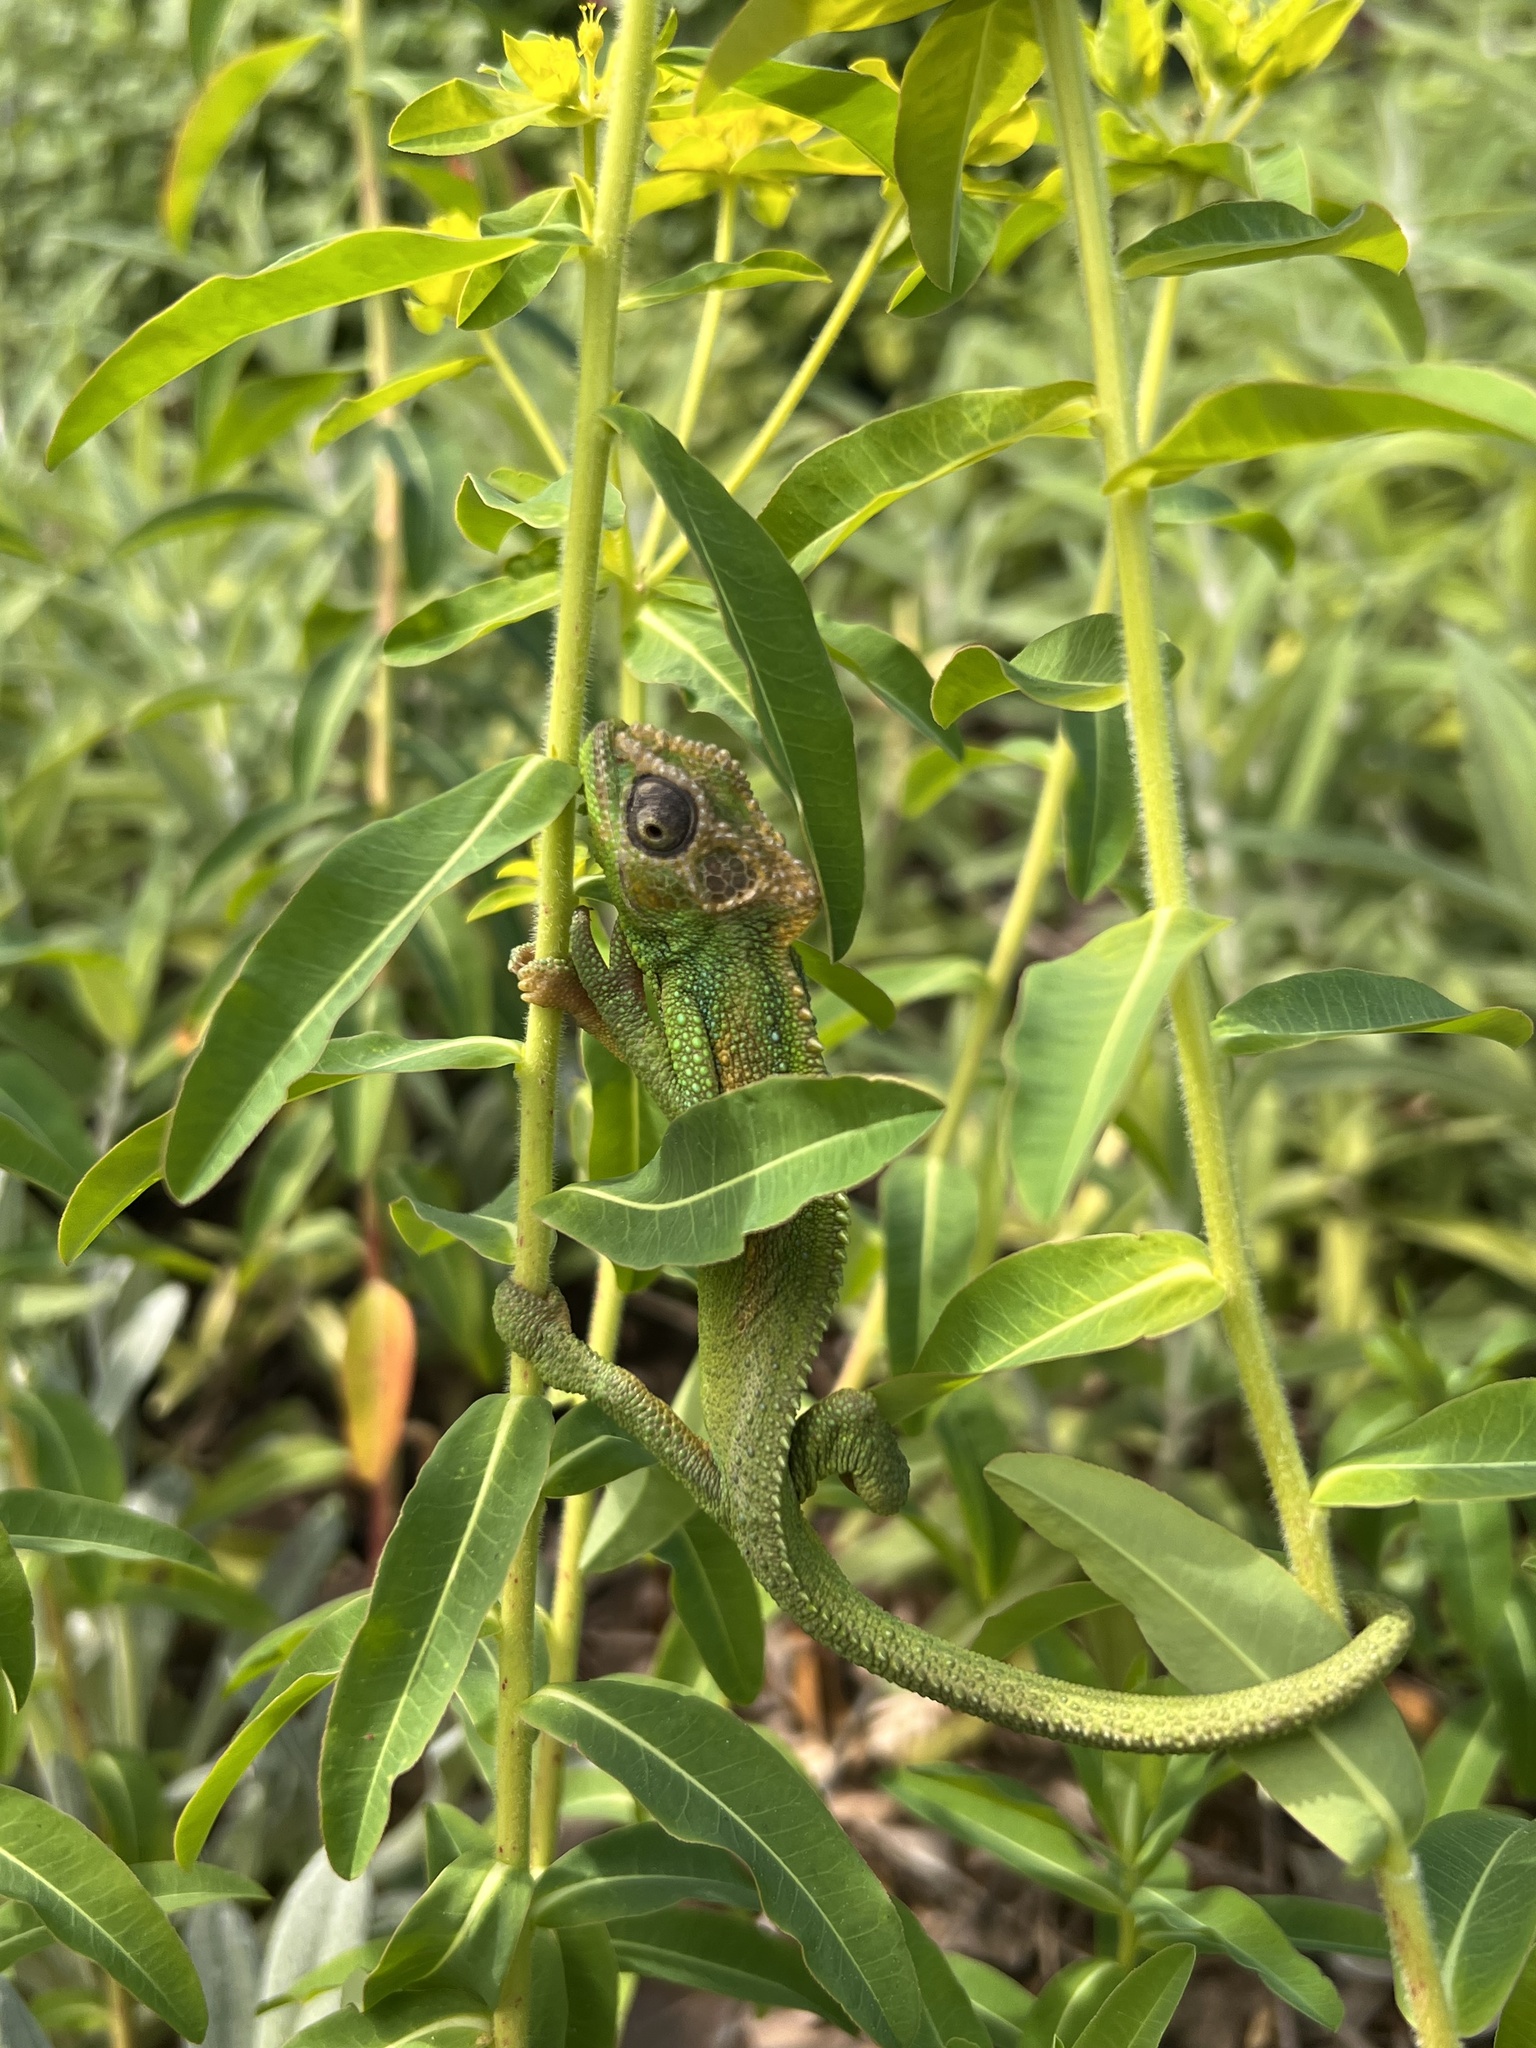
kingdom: Animalia
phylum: Chordata
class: Squamata
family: Chamaeleonidae
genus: Bradypodion
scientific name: Bradypodion pumilum
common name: Cape dwarf chameleon
